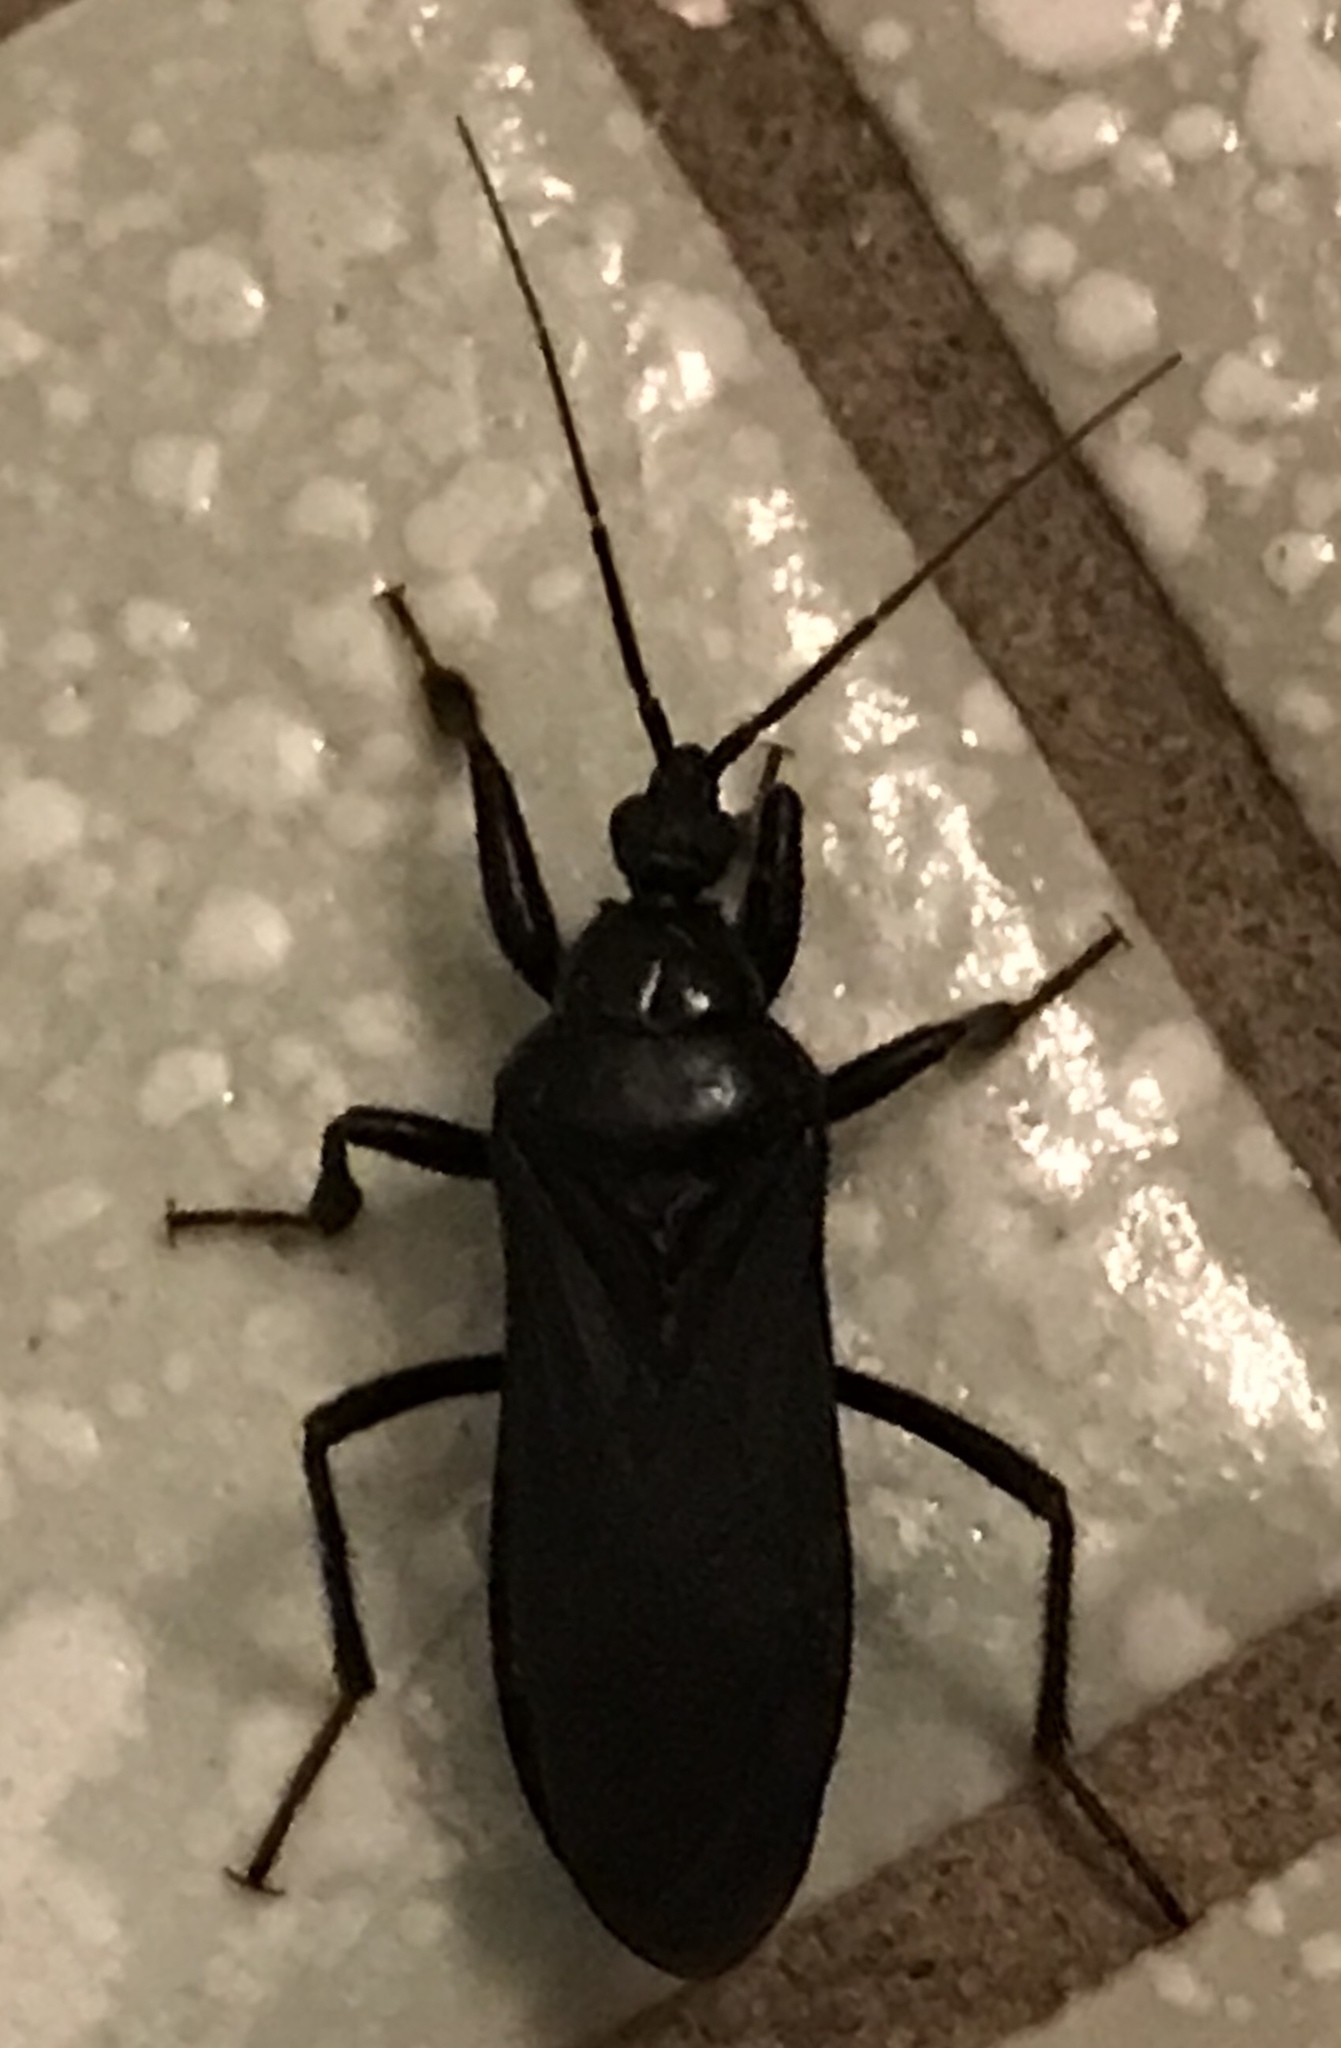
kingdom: Animalia
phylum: Arthropoda
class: Insecta
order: Hemiptera
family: Reduviidae
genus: Melanolestes
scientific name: Melanolestes picipes
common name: Assassin bug
